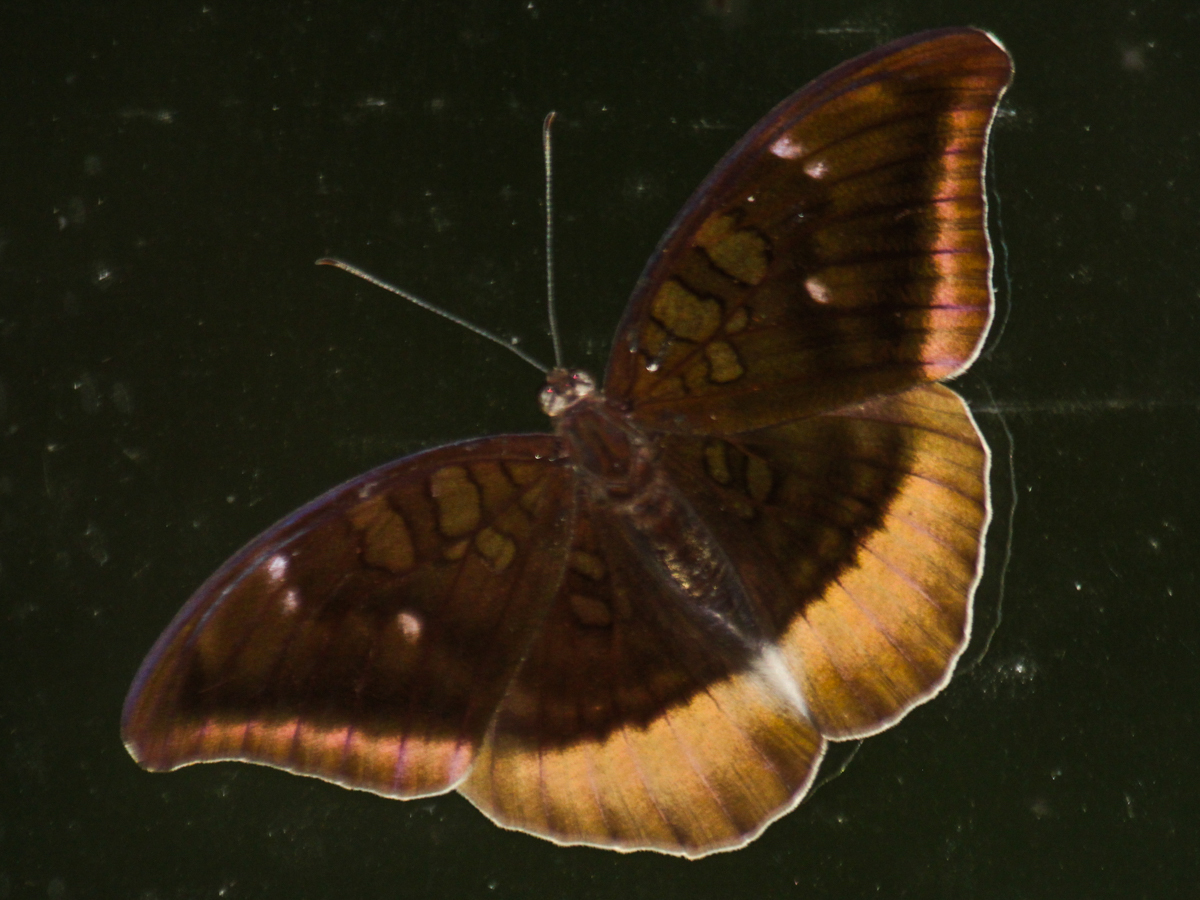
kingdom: Animalia
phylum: Arthropoda
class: Insecta
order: Lepidoptera
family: Nymphalidae
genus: Tanaecia
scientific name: Tanaecia lepidea
